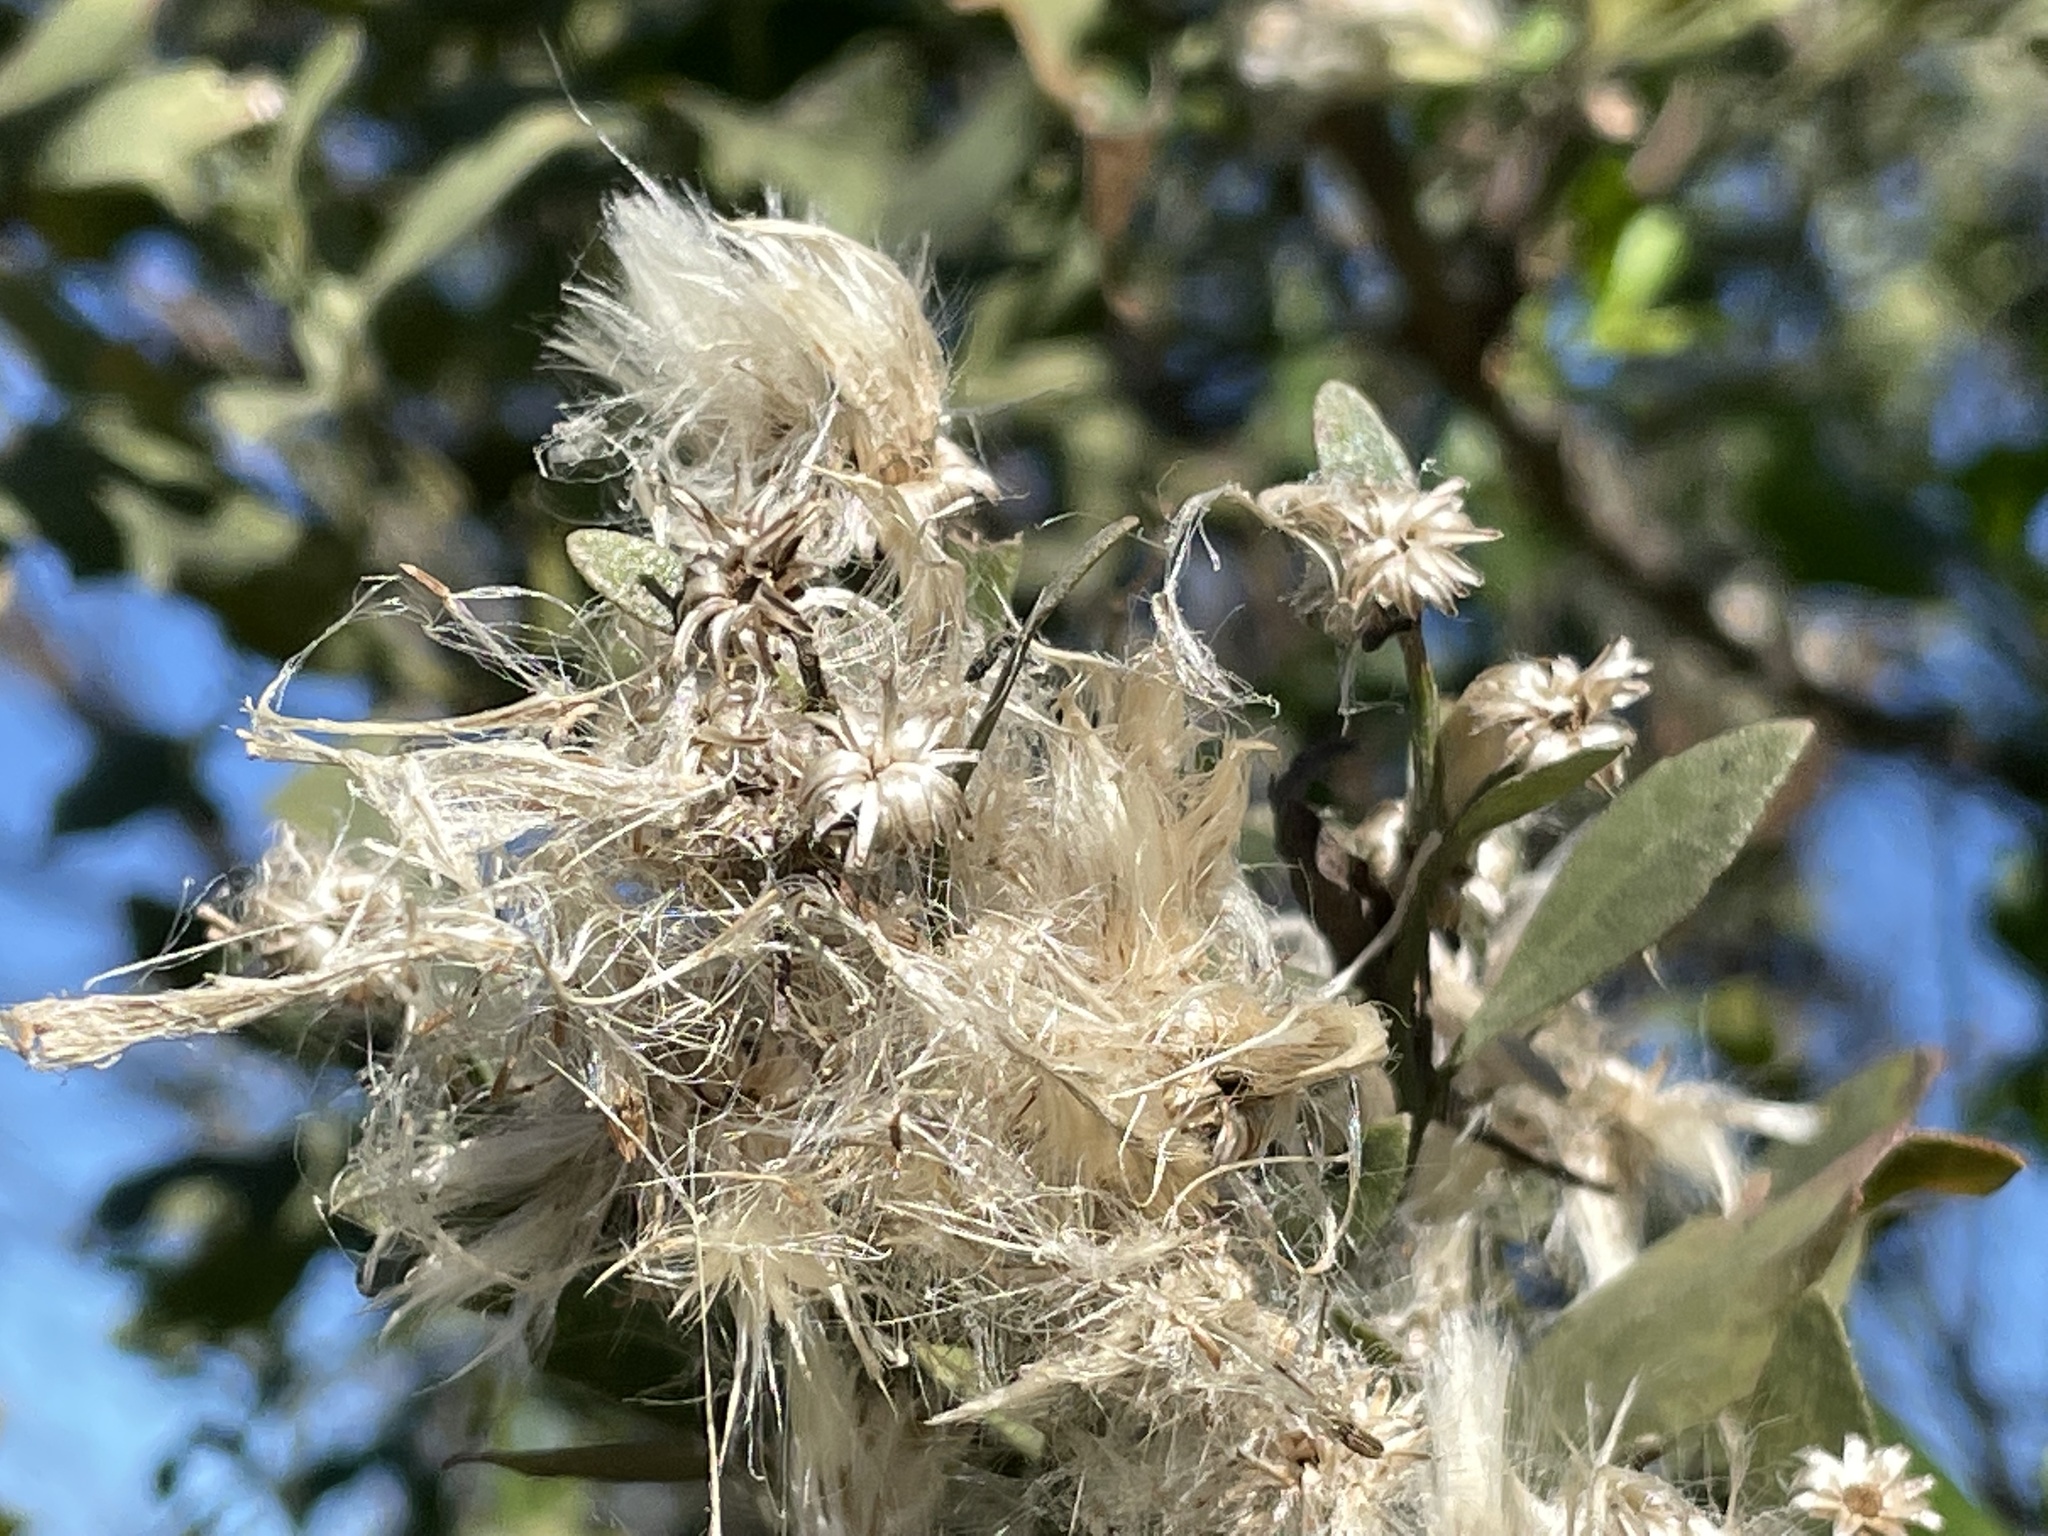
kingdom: Plantae
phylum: Tracheophyta
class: Magnoliopsida
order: Asterales
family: Asteraceae
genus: Baccharis
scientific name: Baccharis halimifolia
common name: Eastern baccharis
